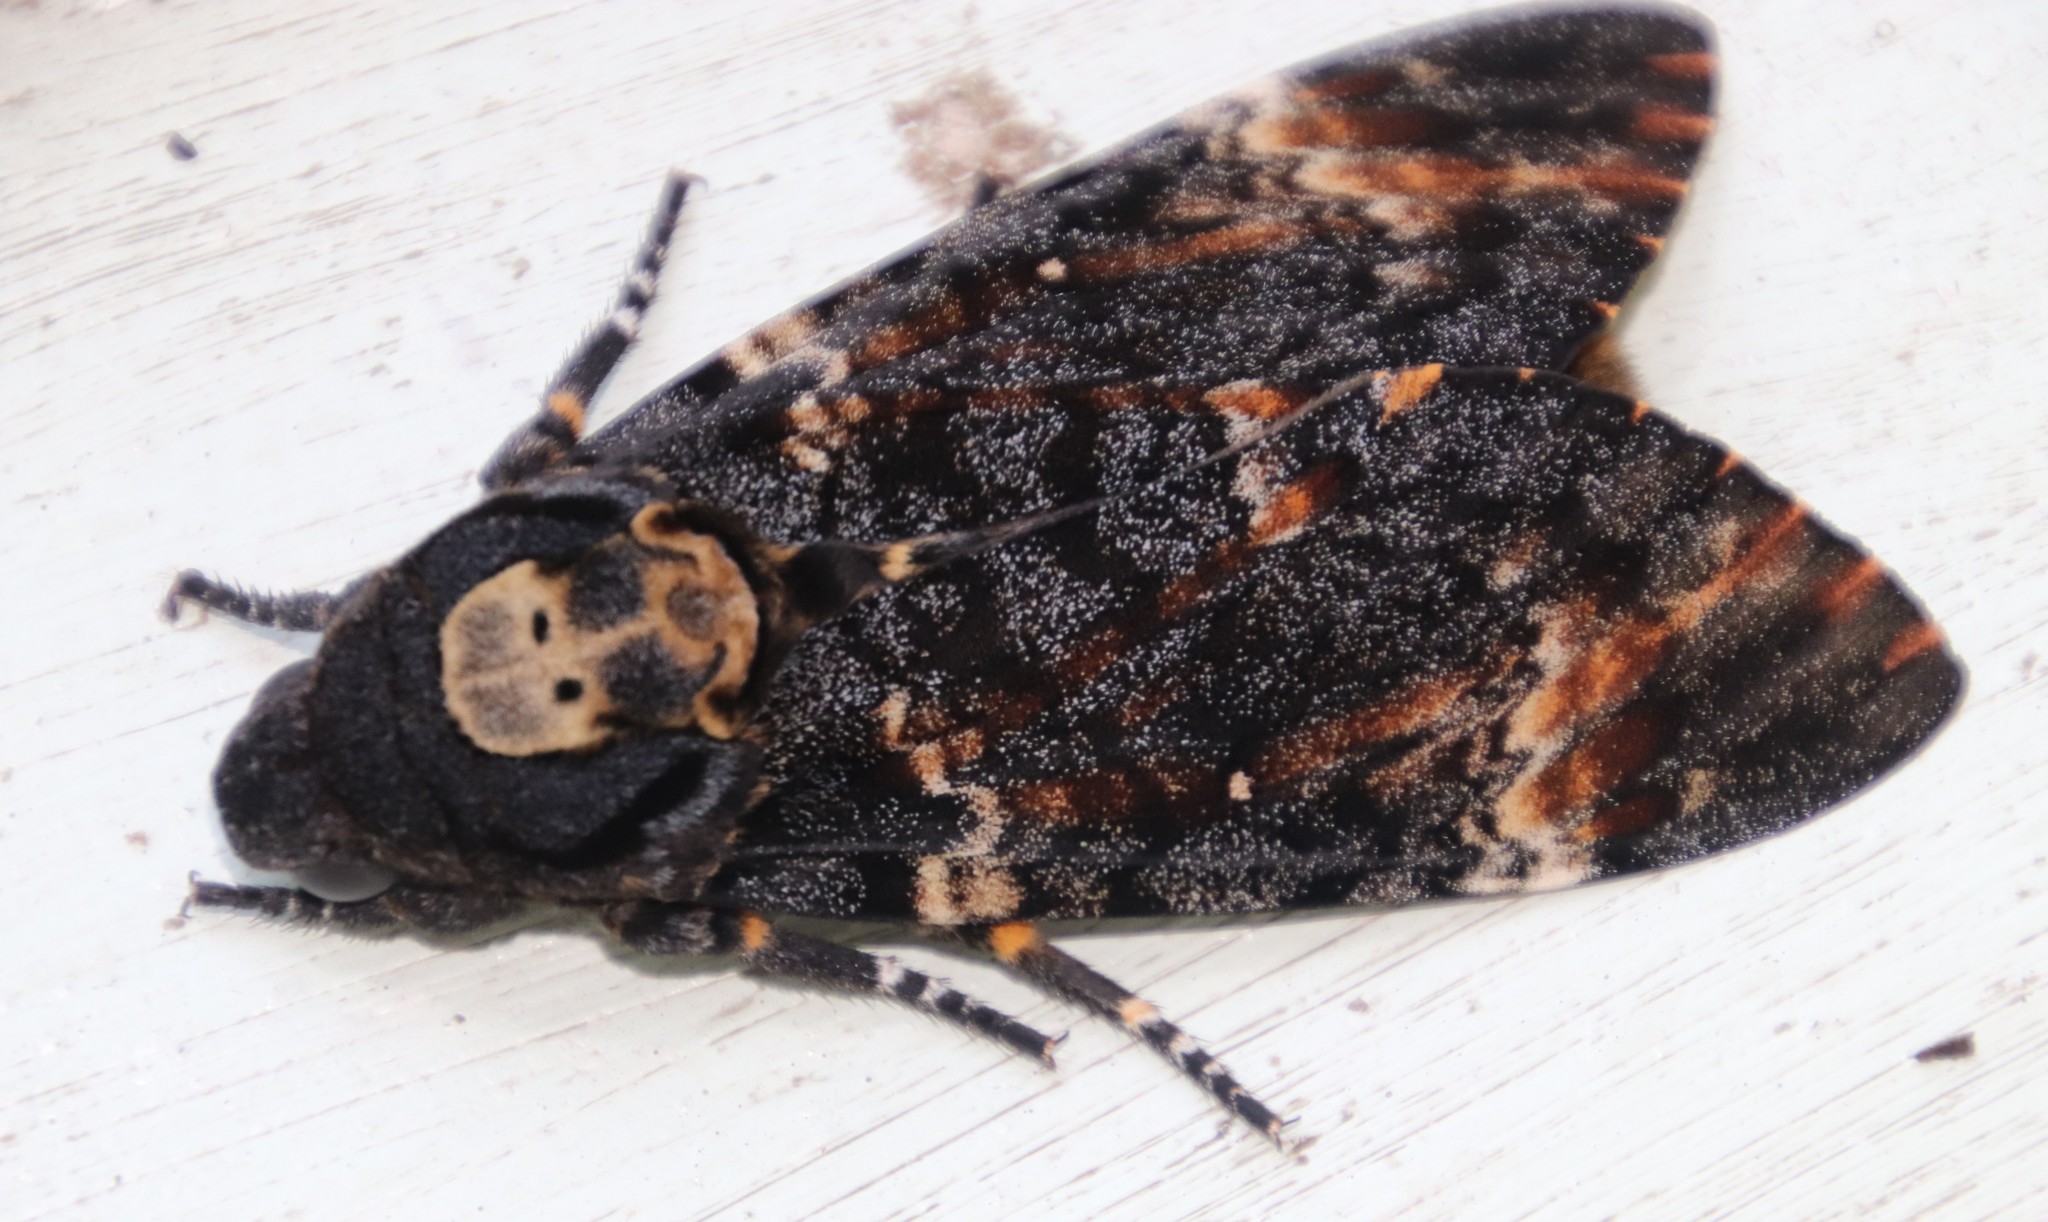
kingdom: Animalia
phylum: Arthropoda
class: Insecta
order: Lepidoptera
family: Sphingidae
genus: Acherontia
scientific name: Acherontia atropos
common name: Death's-head hawk moth
